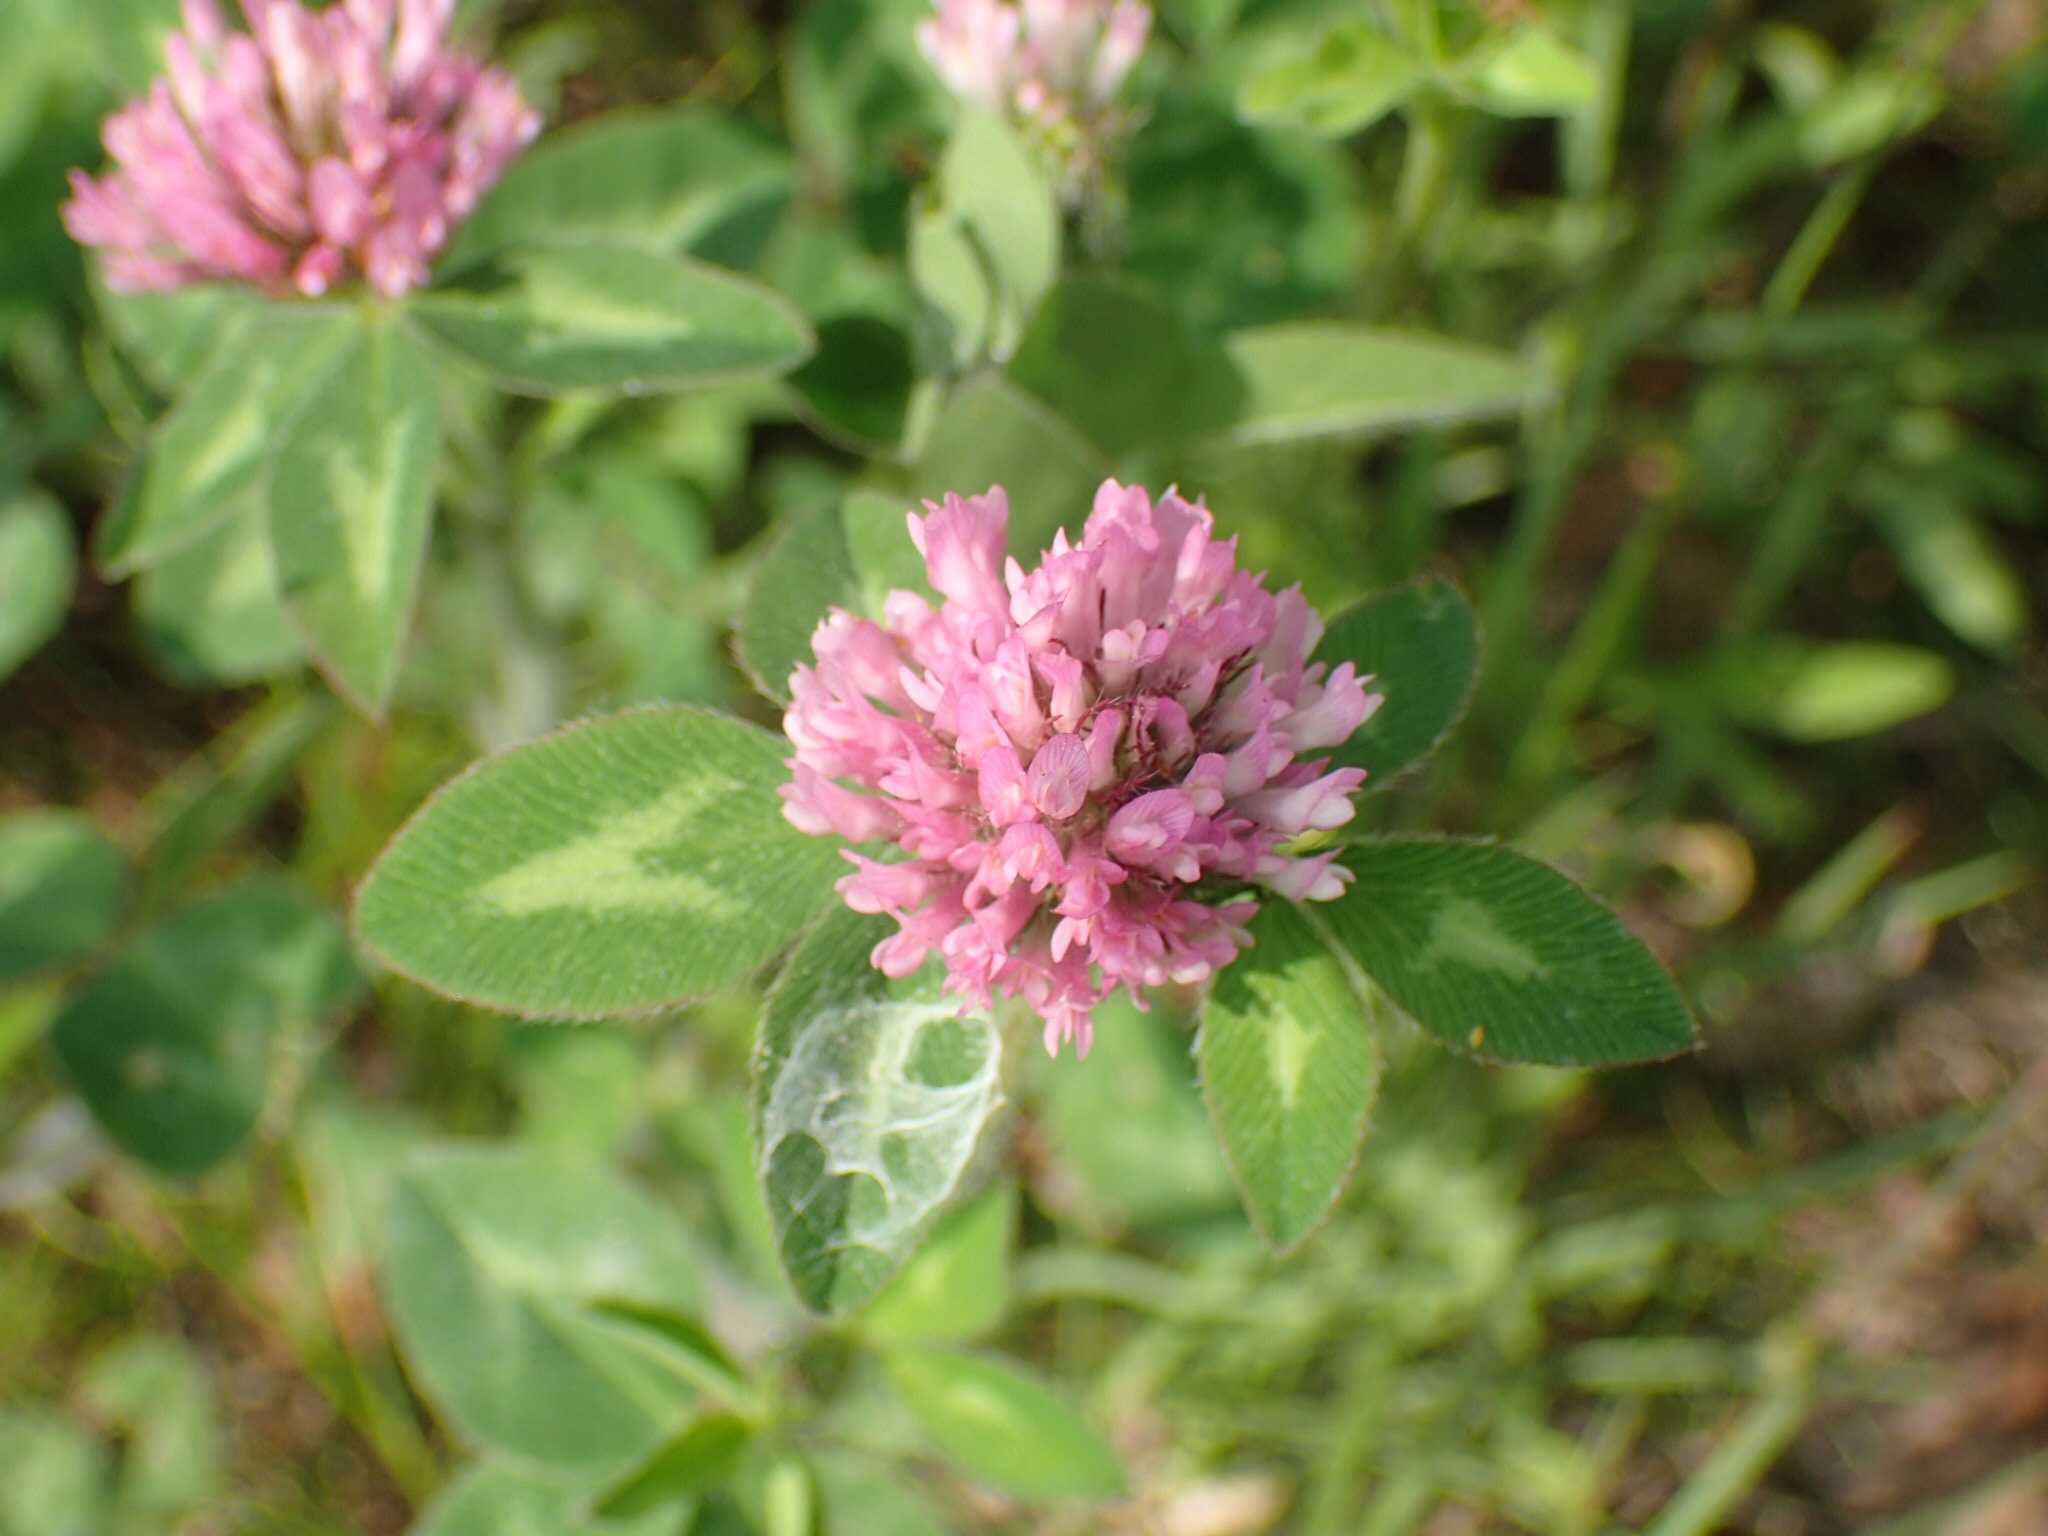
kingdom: Plantae
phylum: Tracheophyta
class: Magnoliopsida
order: Fabales
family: Fabaceae
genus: Trifolium
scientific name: Trifolium pratense
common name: Red clover
